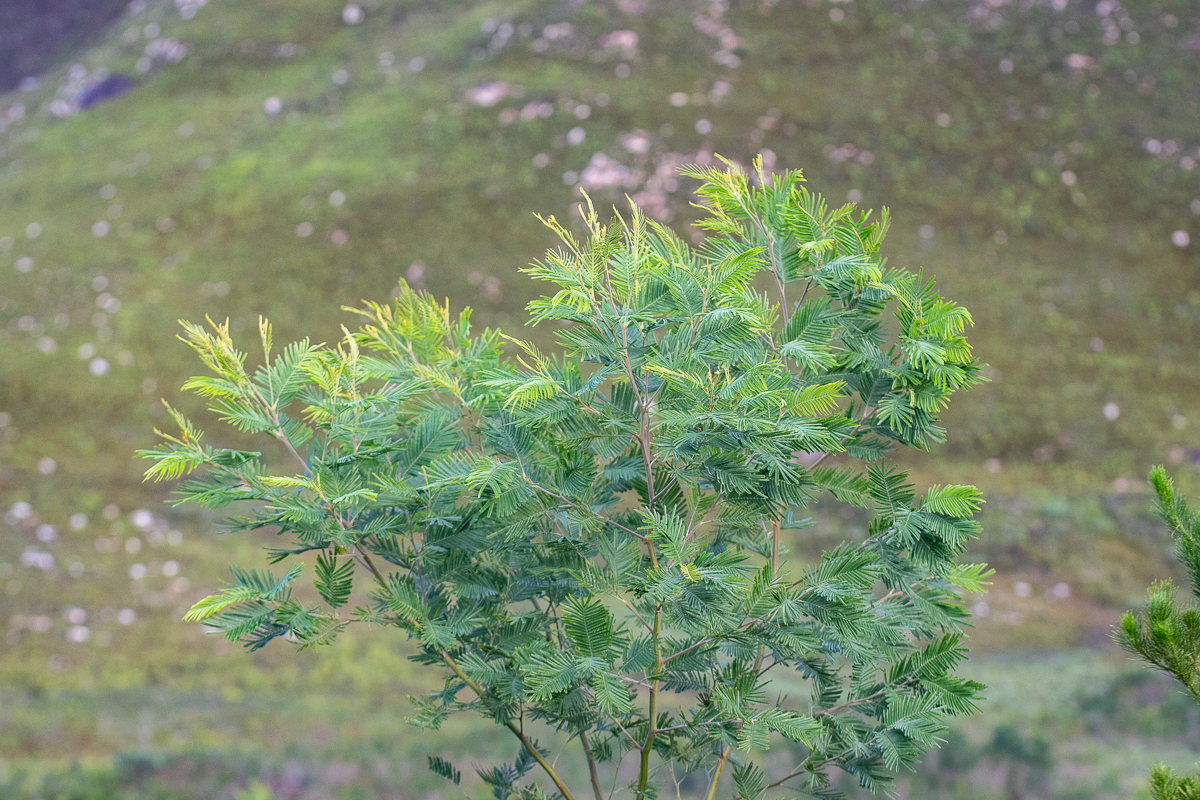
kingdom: Plantae
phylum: Tracheophyta
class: Magnoliopsida
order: Fabales
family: Fabaceae
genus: Acacia
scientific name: Acacia mearnsii
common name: Black wattle
